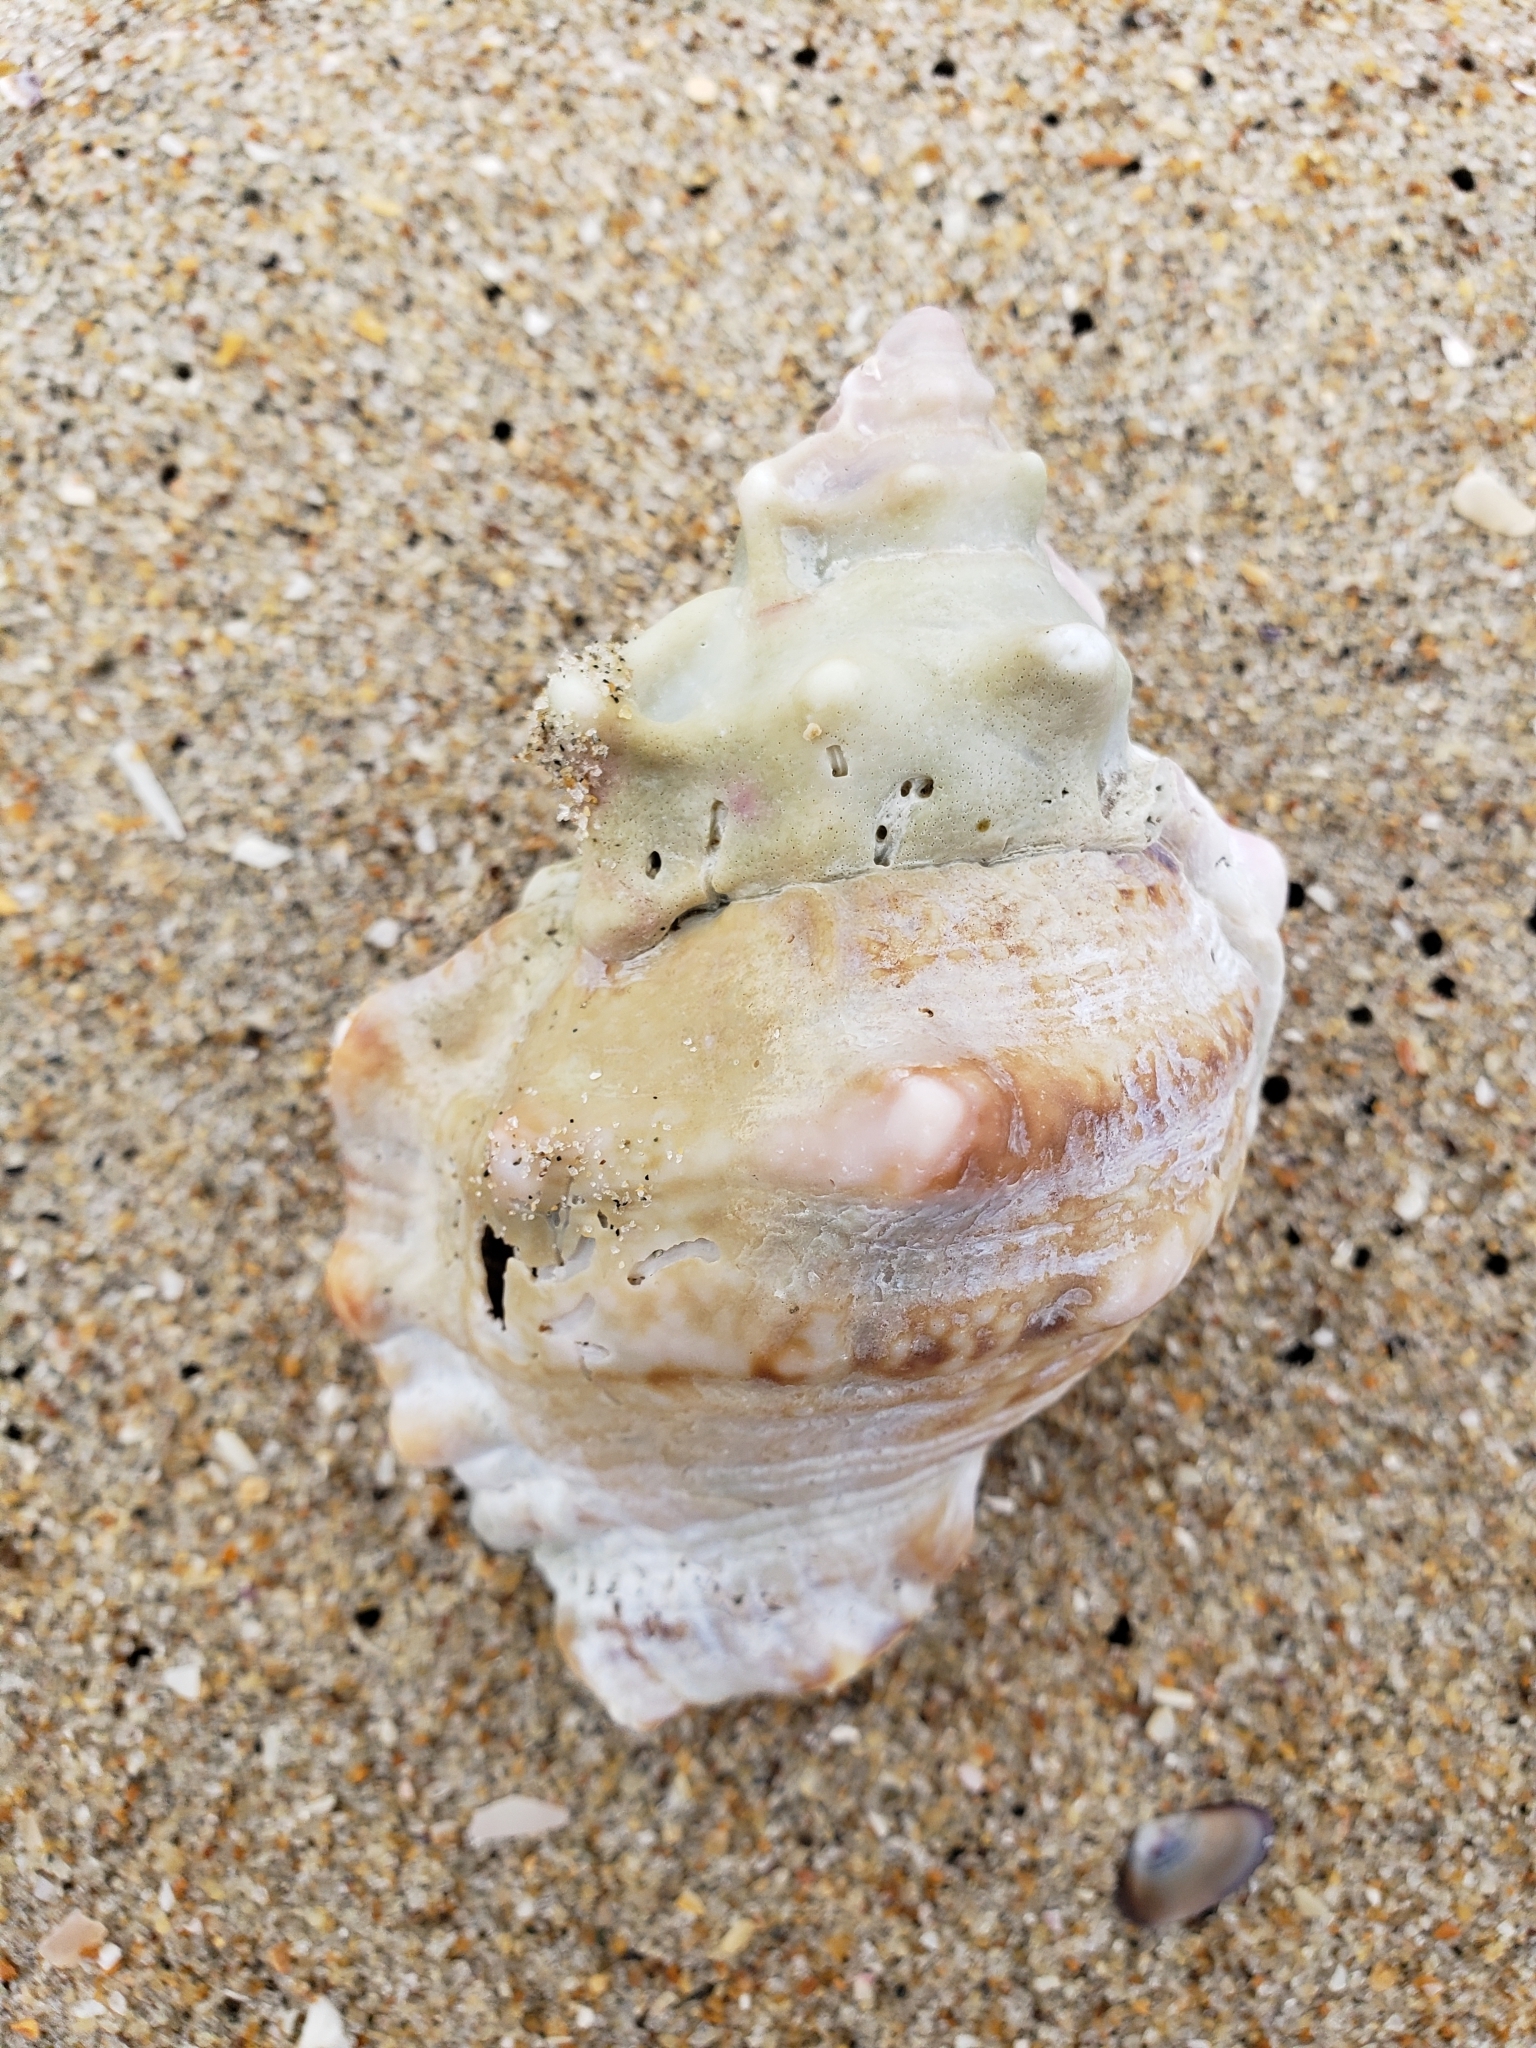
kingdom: Animalia
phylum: Mollusca
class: Gastropoda
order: Littorinimorpha
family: Bursidae
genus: Crossata
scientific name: Crossata californica
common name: California frogsnail
